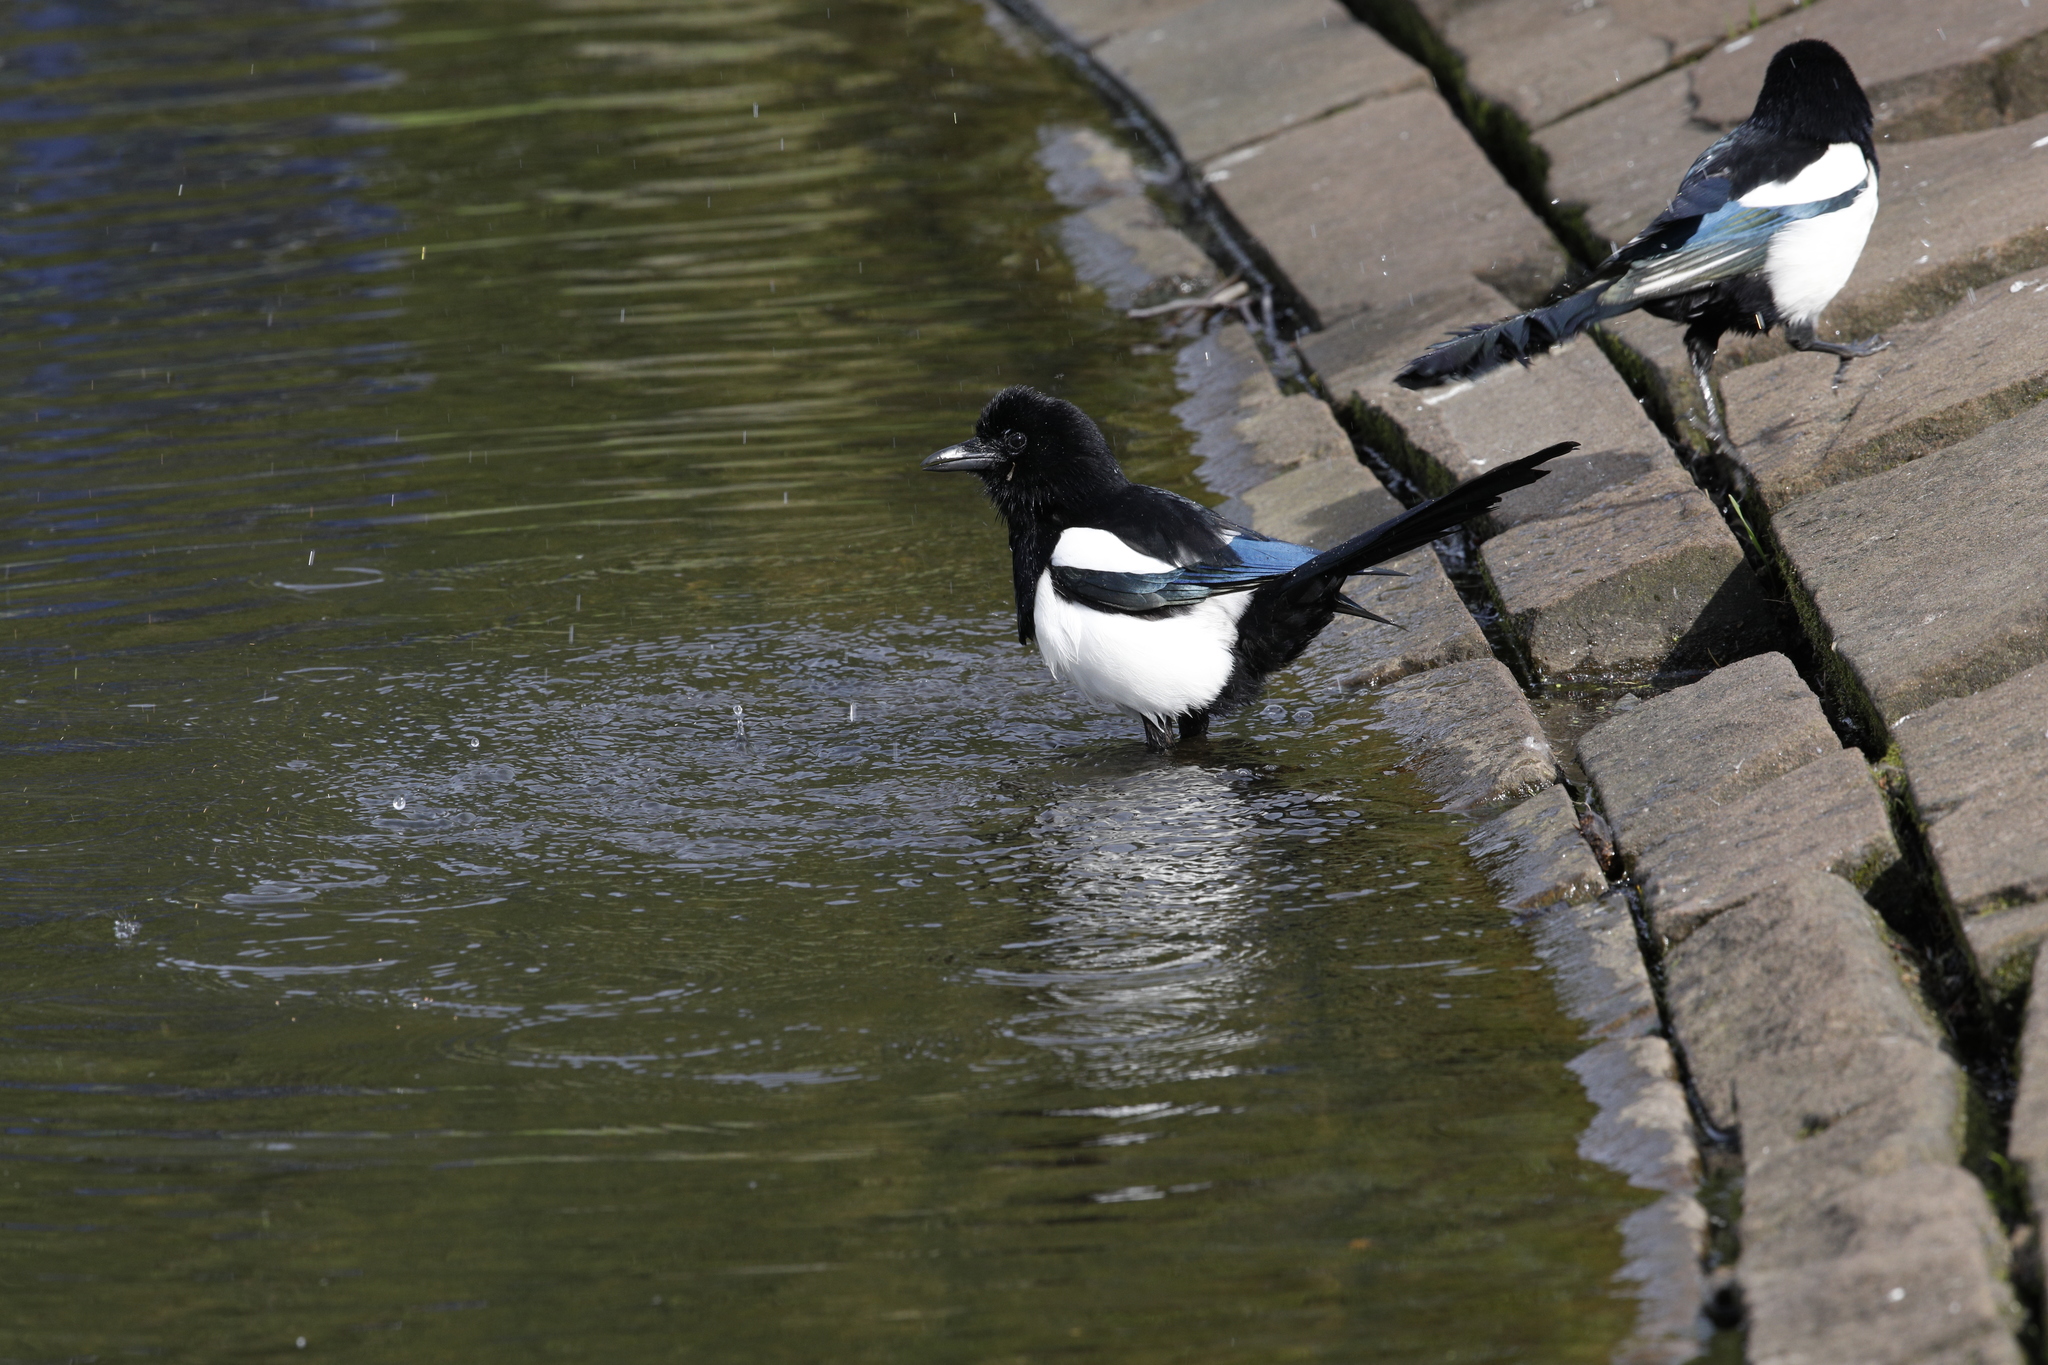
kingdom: Animalia
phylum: Chordata
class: Aves
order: Passeriformes
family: Corvidae
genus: Pica
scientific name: Pica pica
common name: Eurasian magpie
